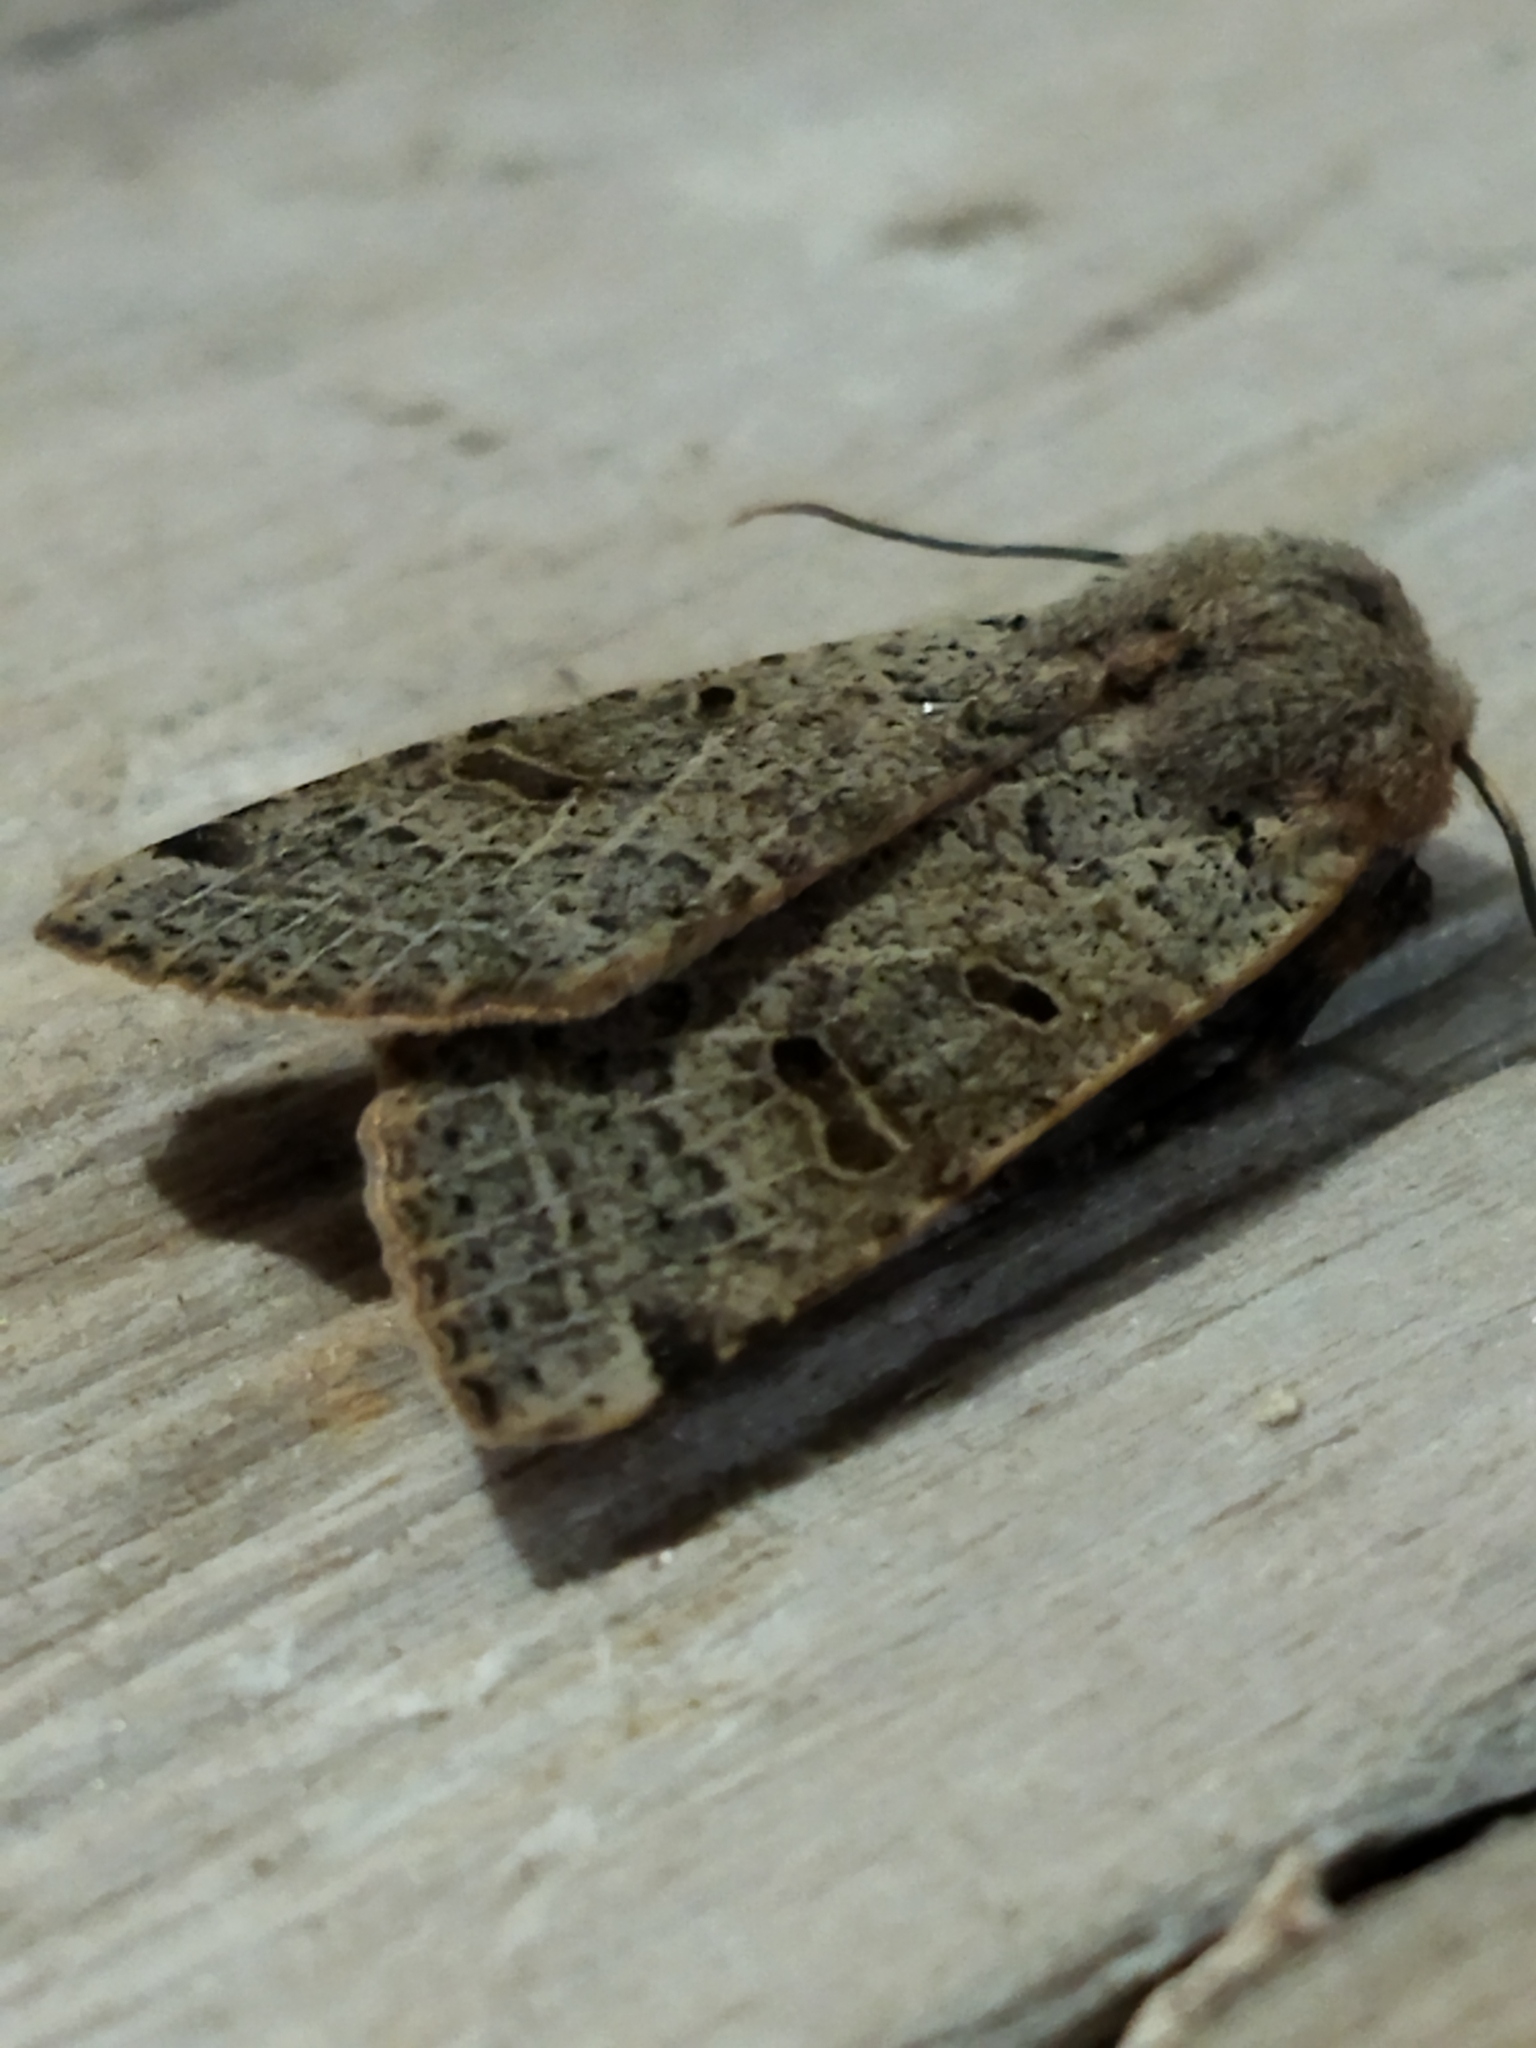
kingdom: Animalia
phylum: Arthropoda
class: Insecta
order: Lepidoptera
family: Noctuidae
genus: Agrochola
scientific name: Agrochola lychnidis
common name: Beaded chestnut
